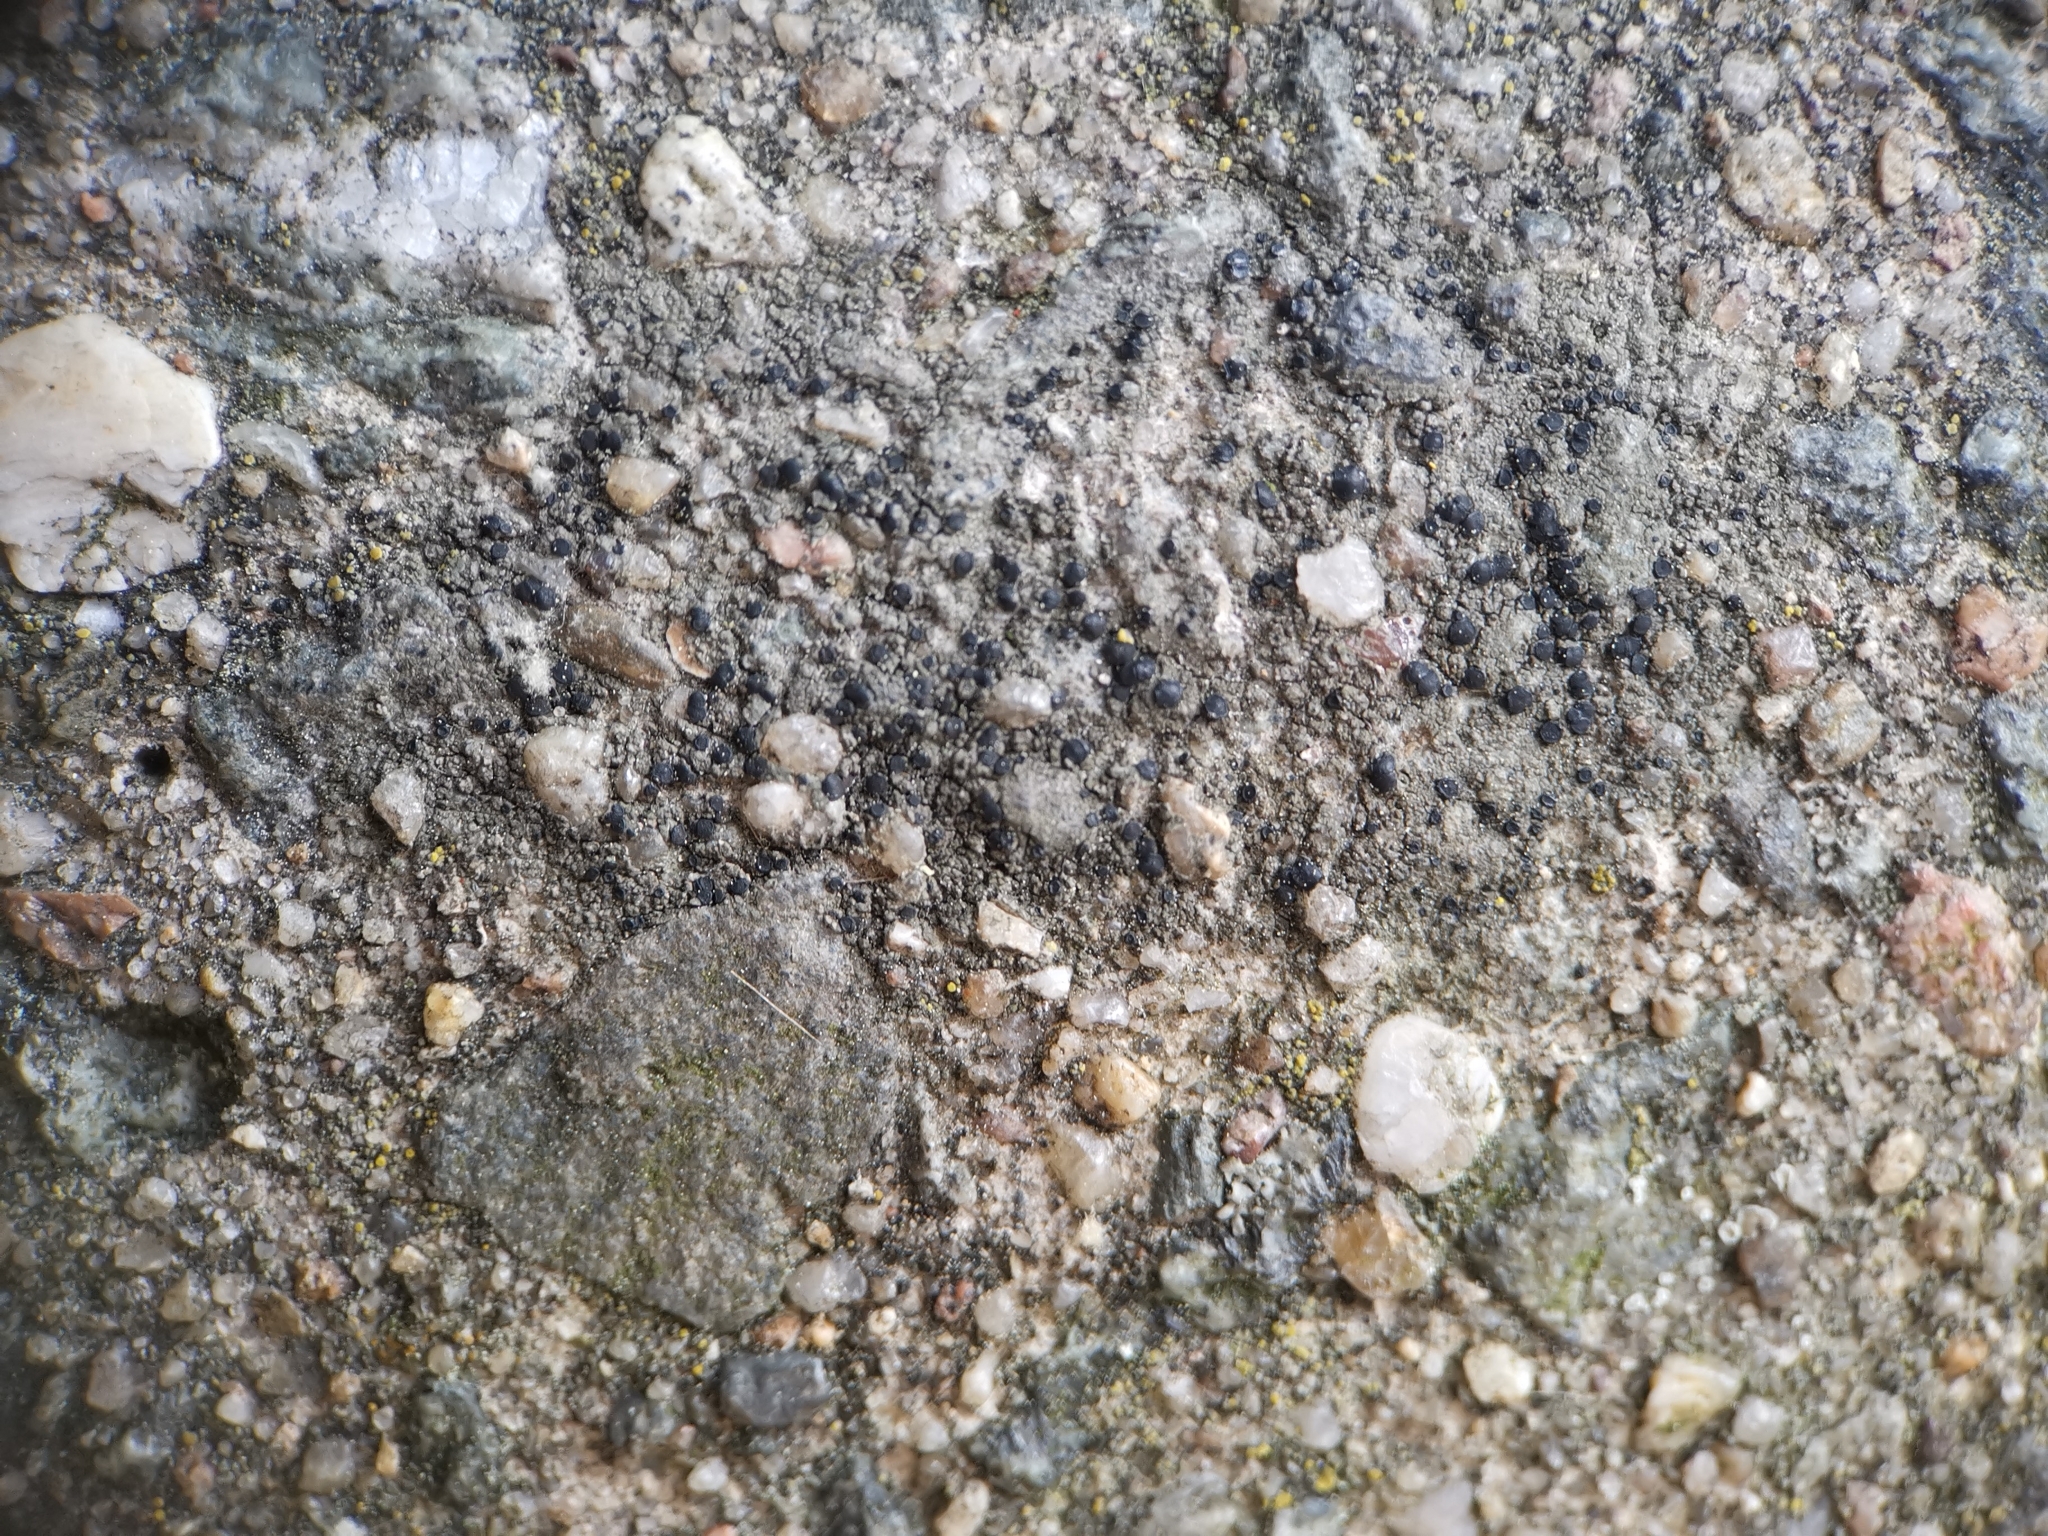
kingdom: Fungi
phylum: Ascomycota
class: Lecanoromycetes
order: Lecanorales
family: Lecanoraceae
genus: Lecidella
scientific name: Lecidella stigmatea
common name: Limestone disc lichen
